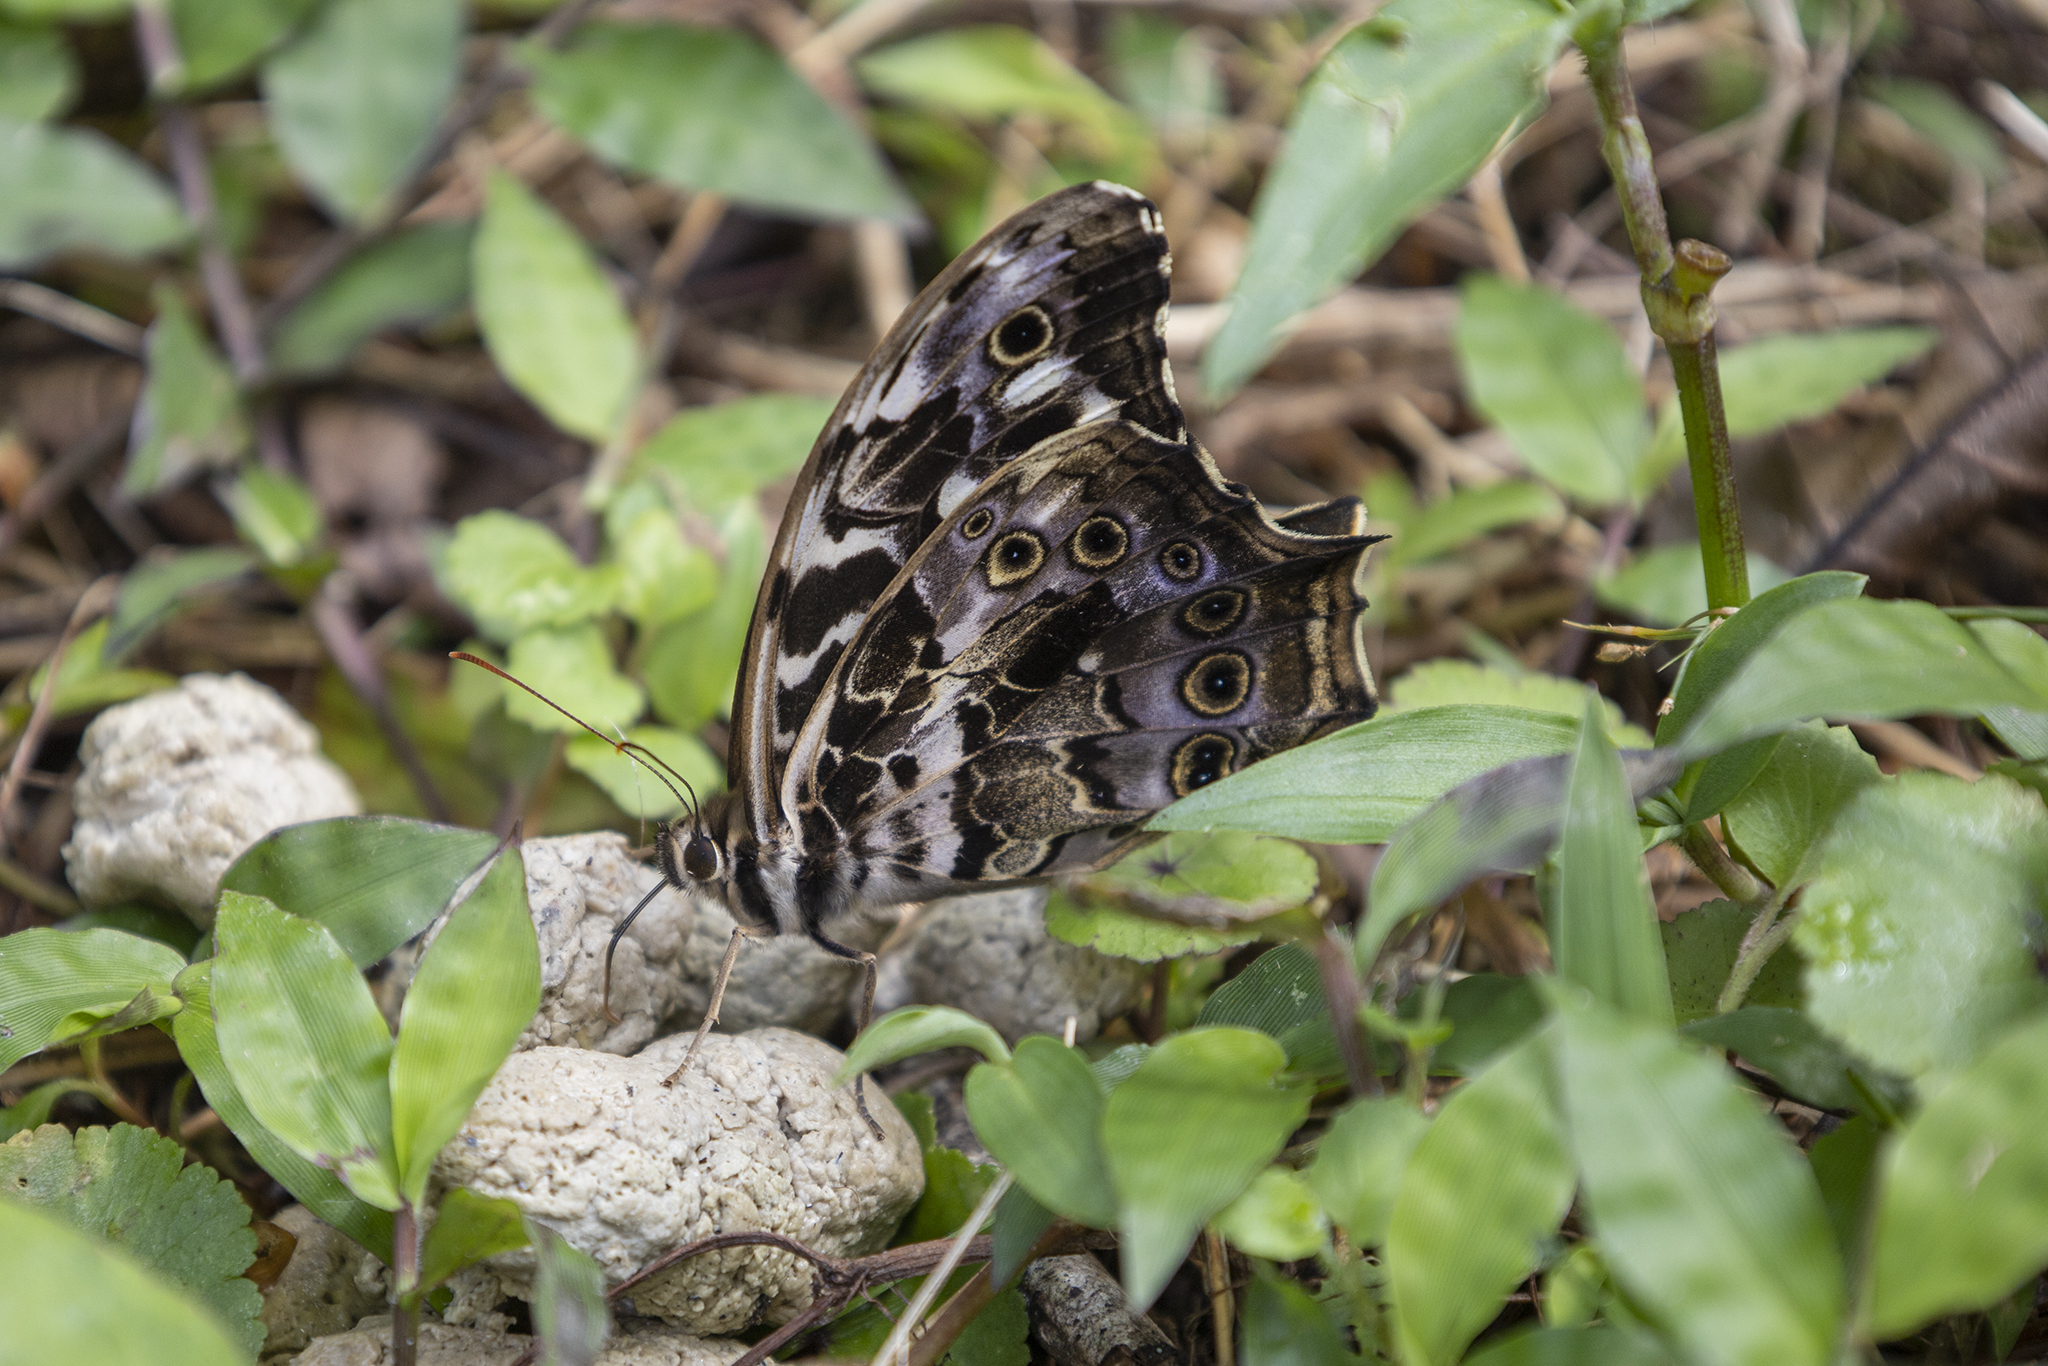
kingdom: Animalia
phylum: Arthropoda
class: Insecta
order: Lepidoptera
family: Nymphalidae
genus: Neope
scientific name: Neope armandii
